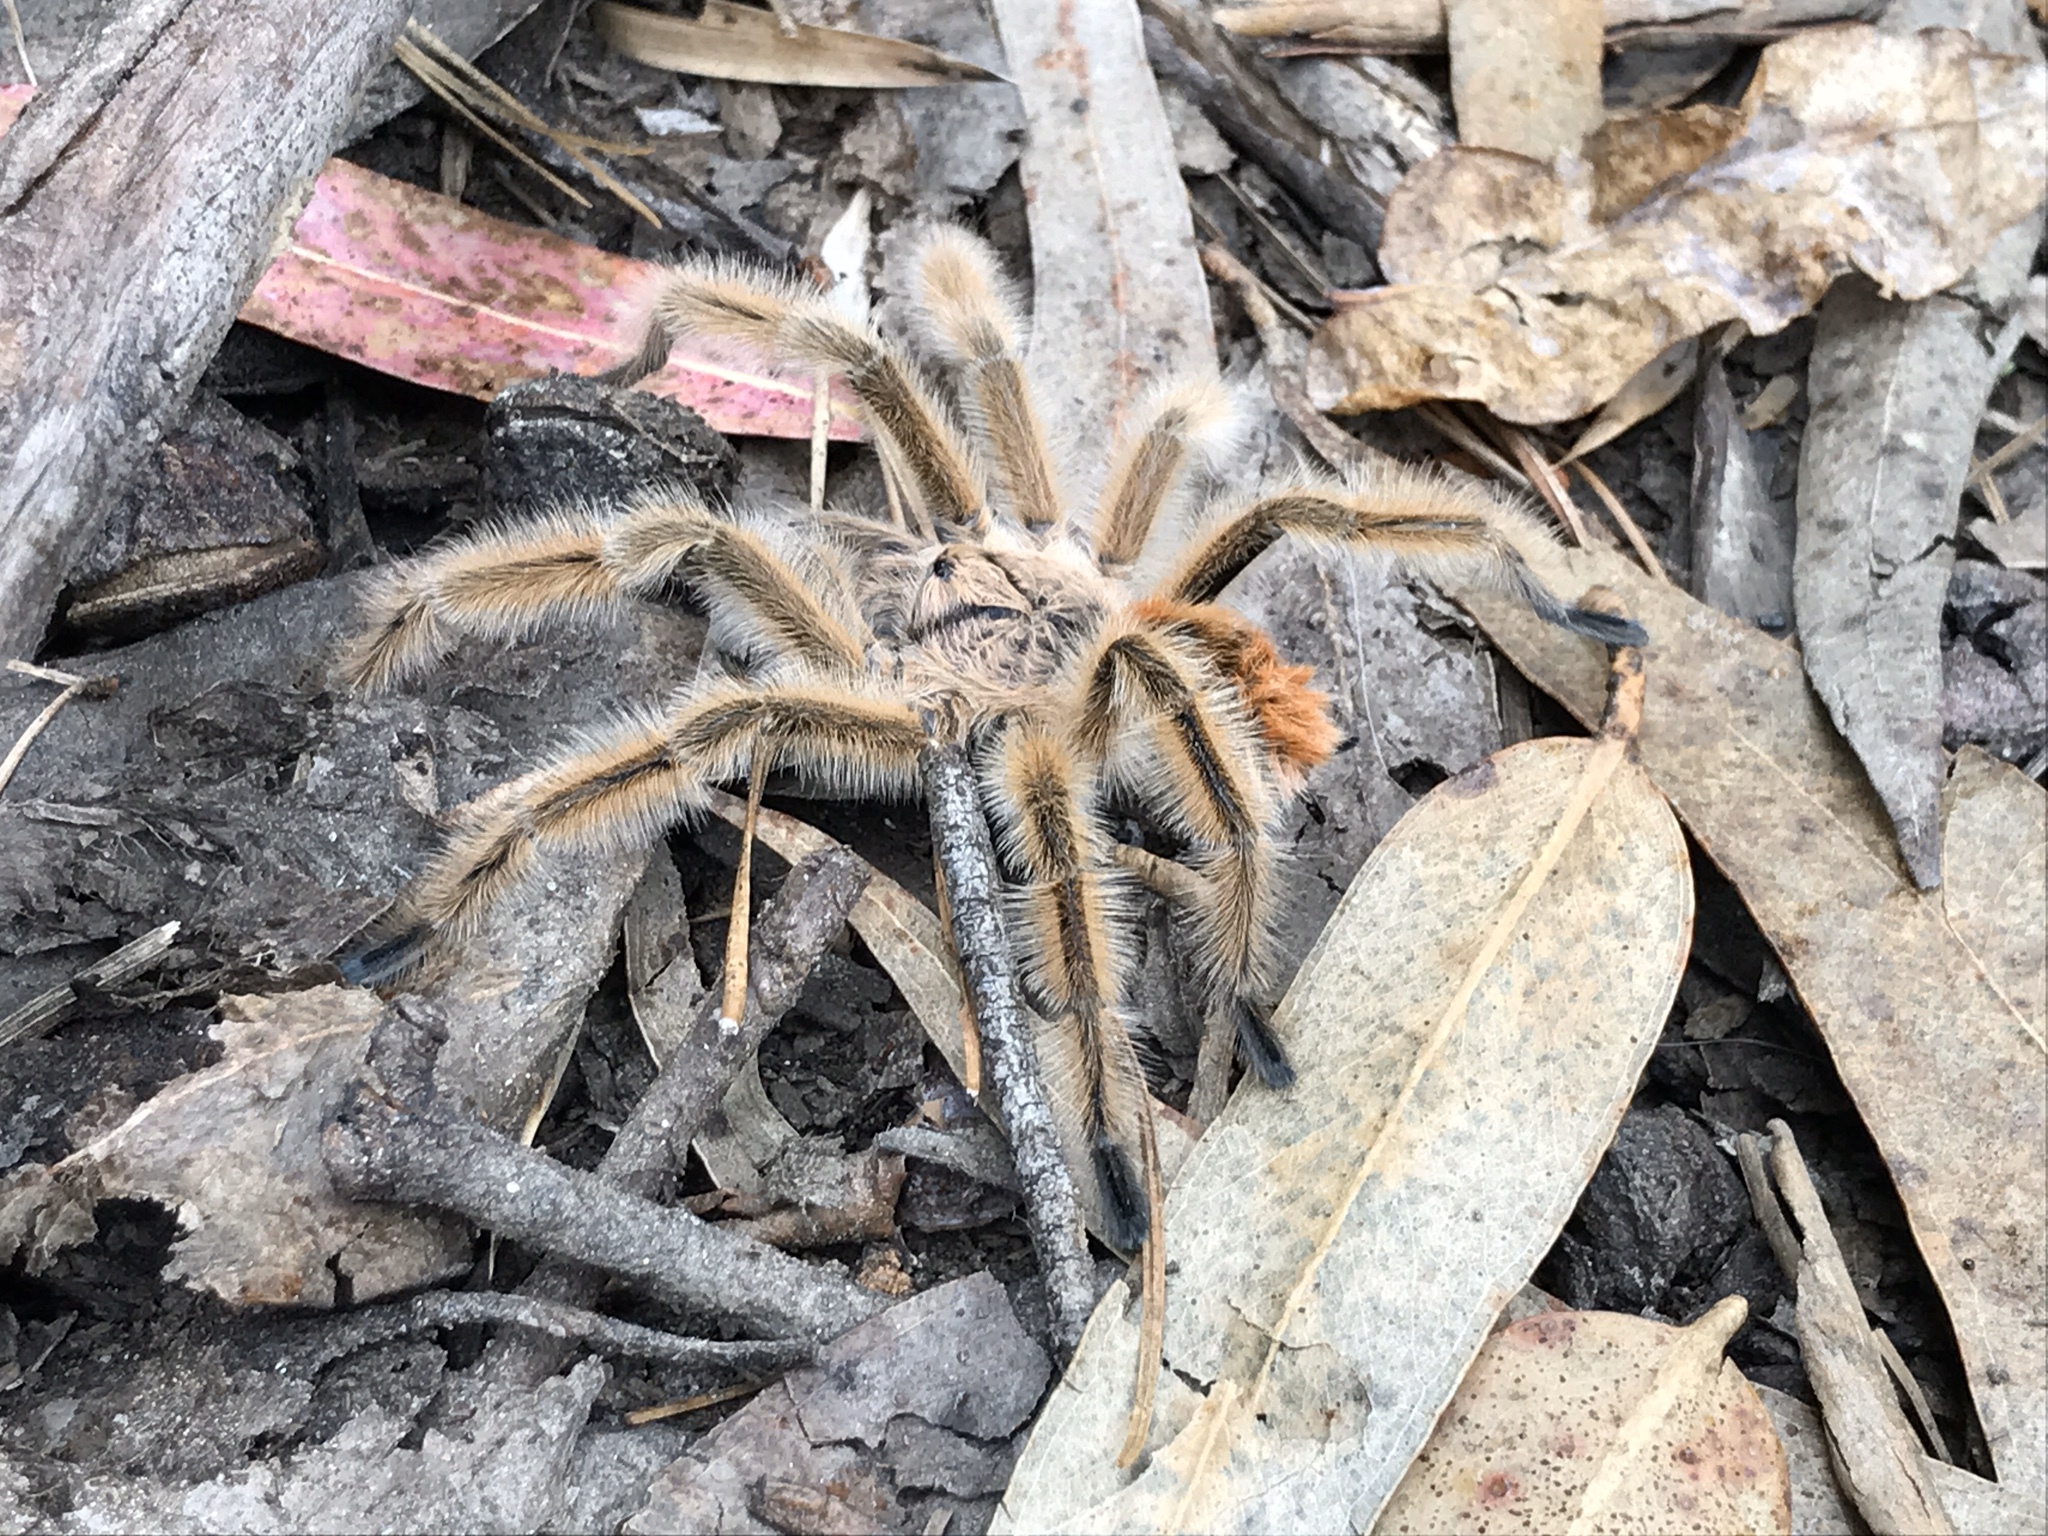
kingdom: Animalia
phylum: Arthropoda
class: Arachnida
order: Araneae
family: Theraphosidae
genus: Phrixotrichus
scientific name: Phrixotrichus vulpinus
